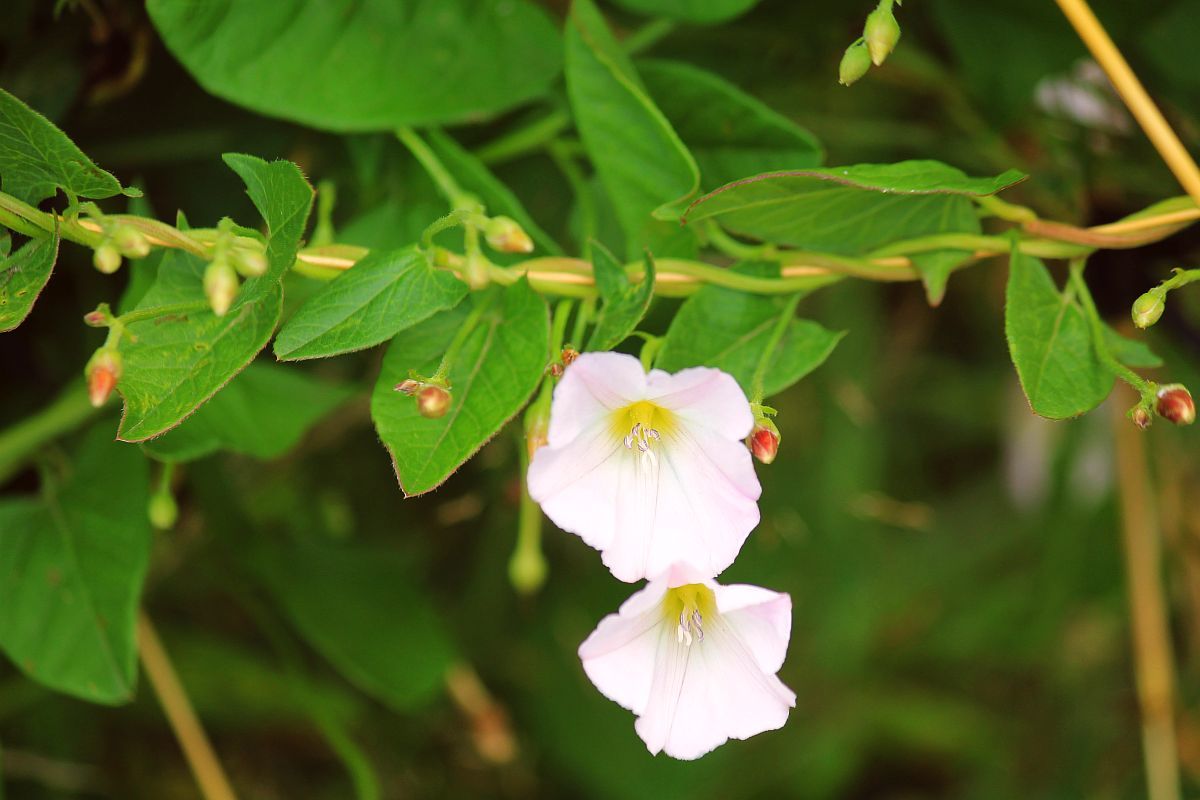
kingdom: Plantae
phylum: Tracheophyta
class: Magnoliopsida
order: Solanales
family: Convolvulaceae
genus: Convolvulus
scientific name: Convolvulus arvensis
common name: Field bindweed
